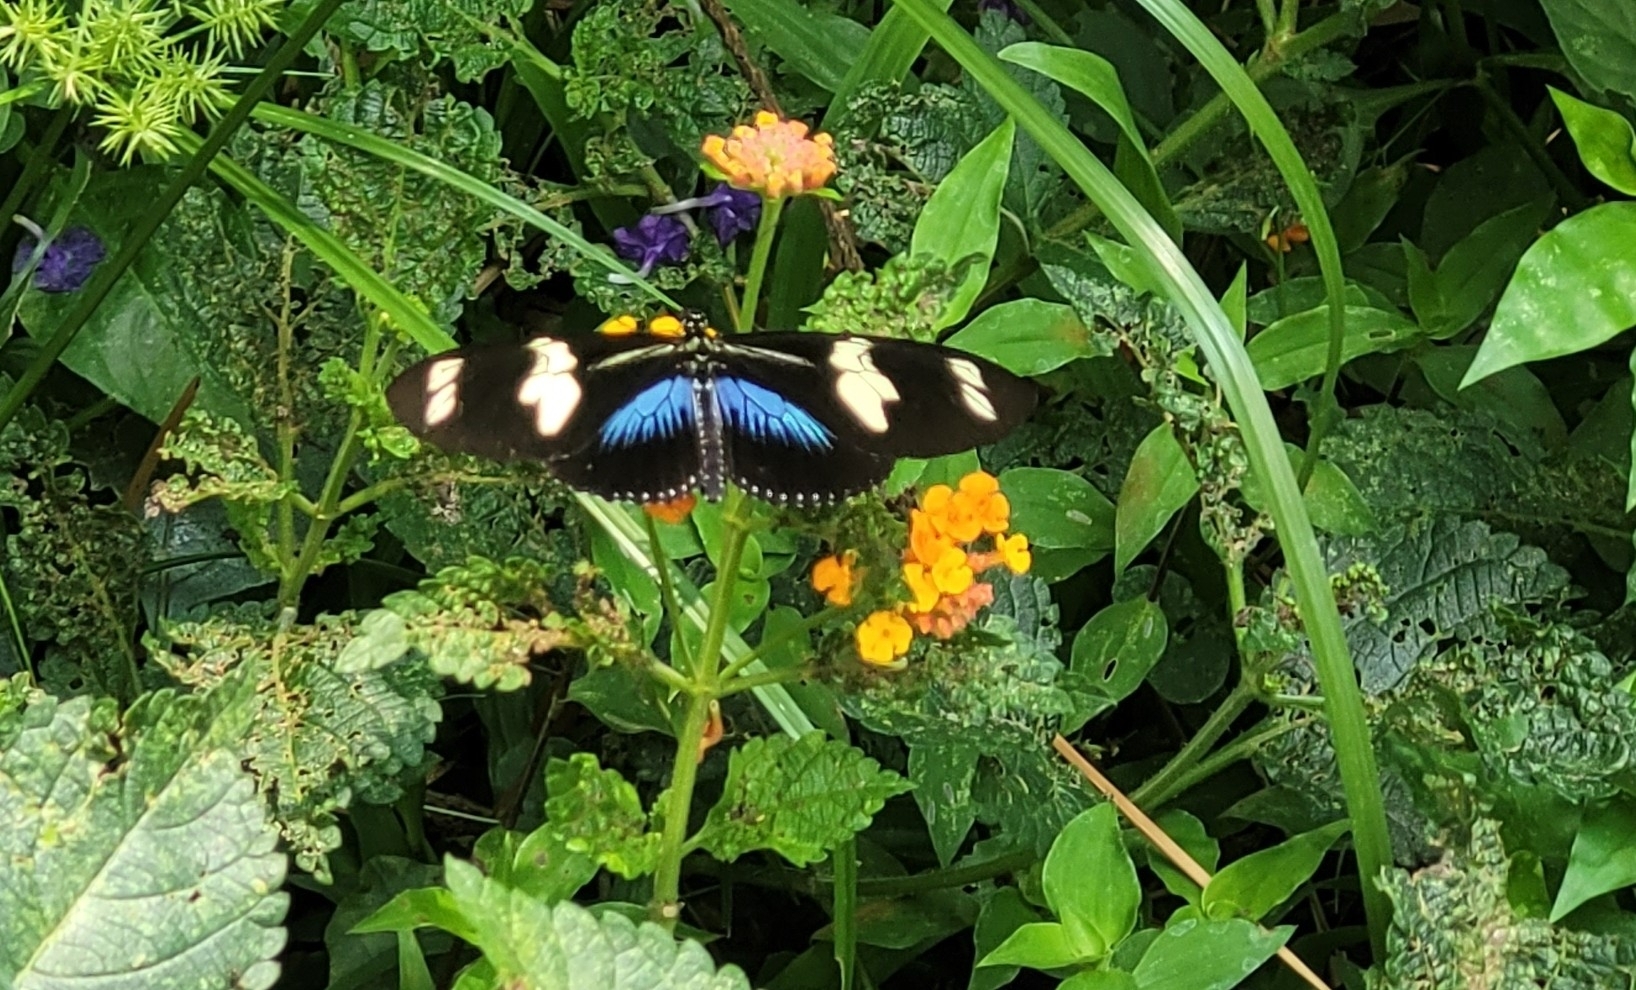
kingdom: Animalia
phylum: Arthropoda
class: Insecta
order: Lepidoptera
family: Nymphalidae
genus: Heliconius
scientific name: Heliconius doris
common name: Doris longwing
